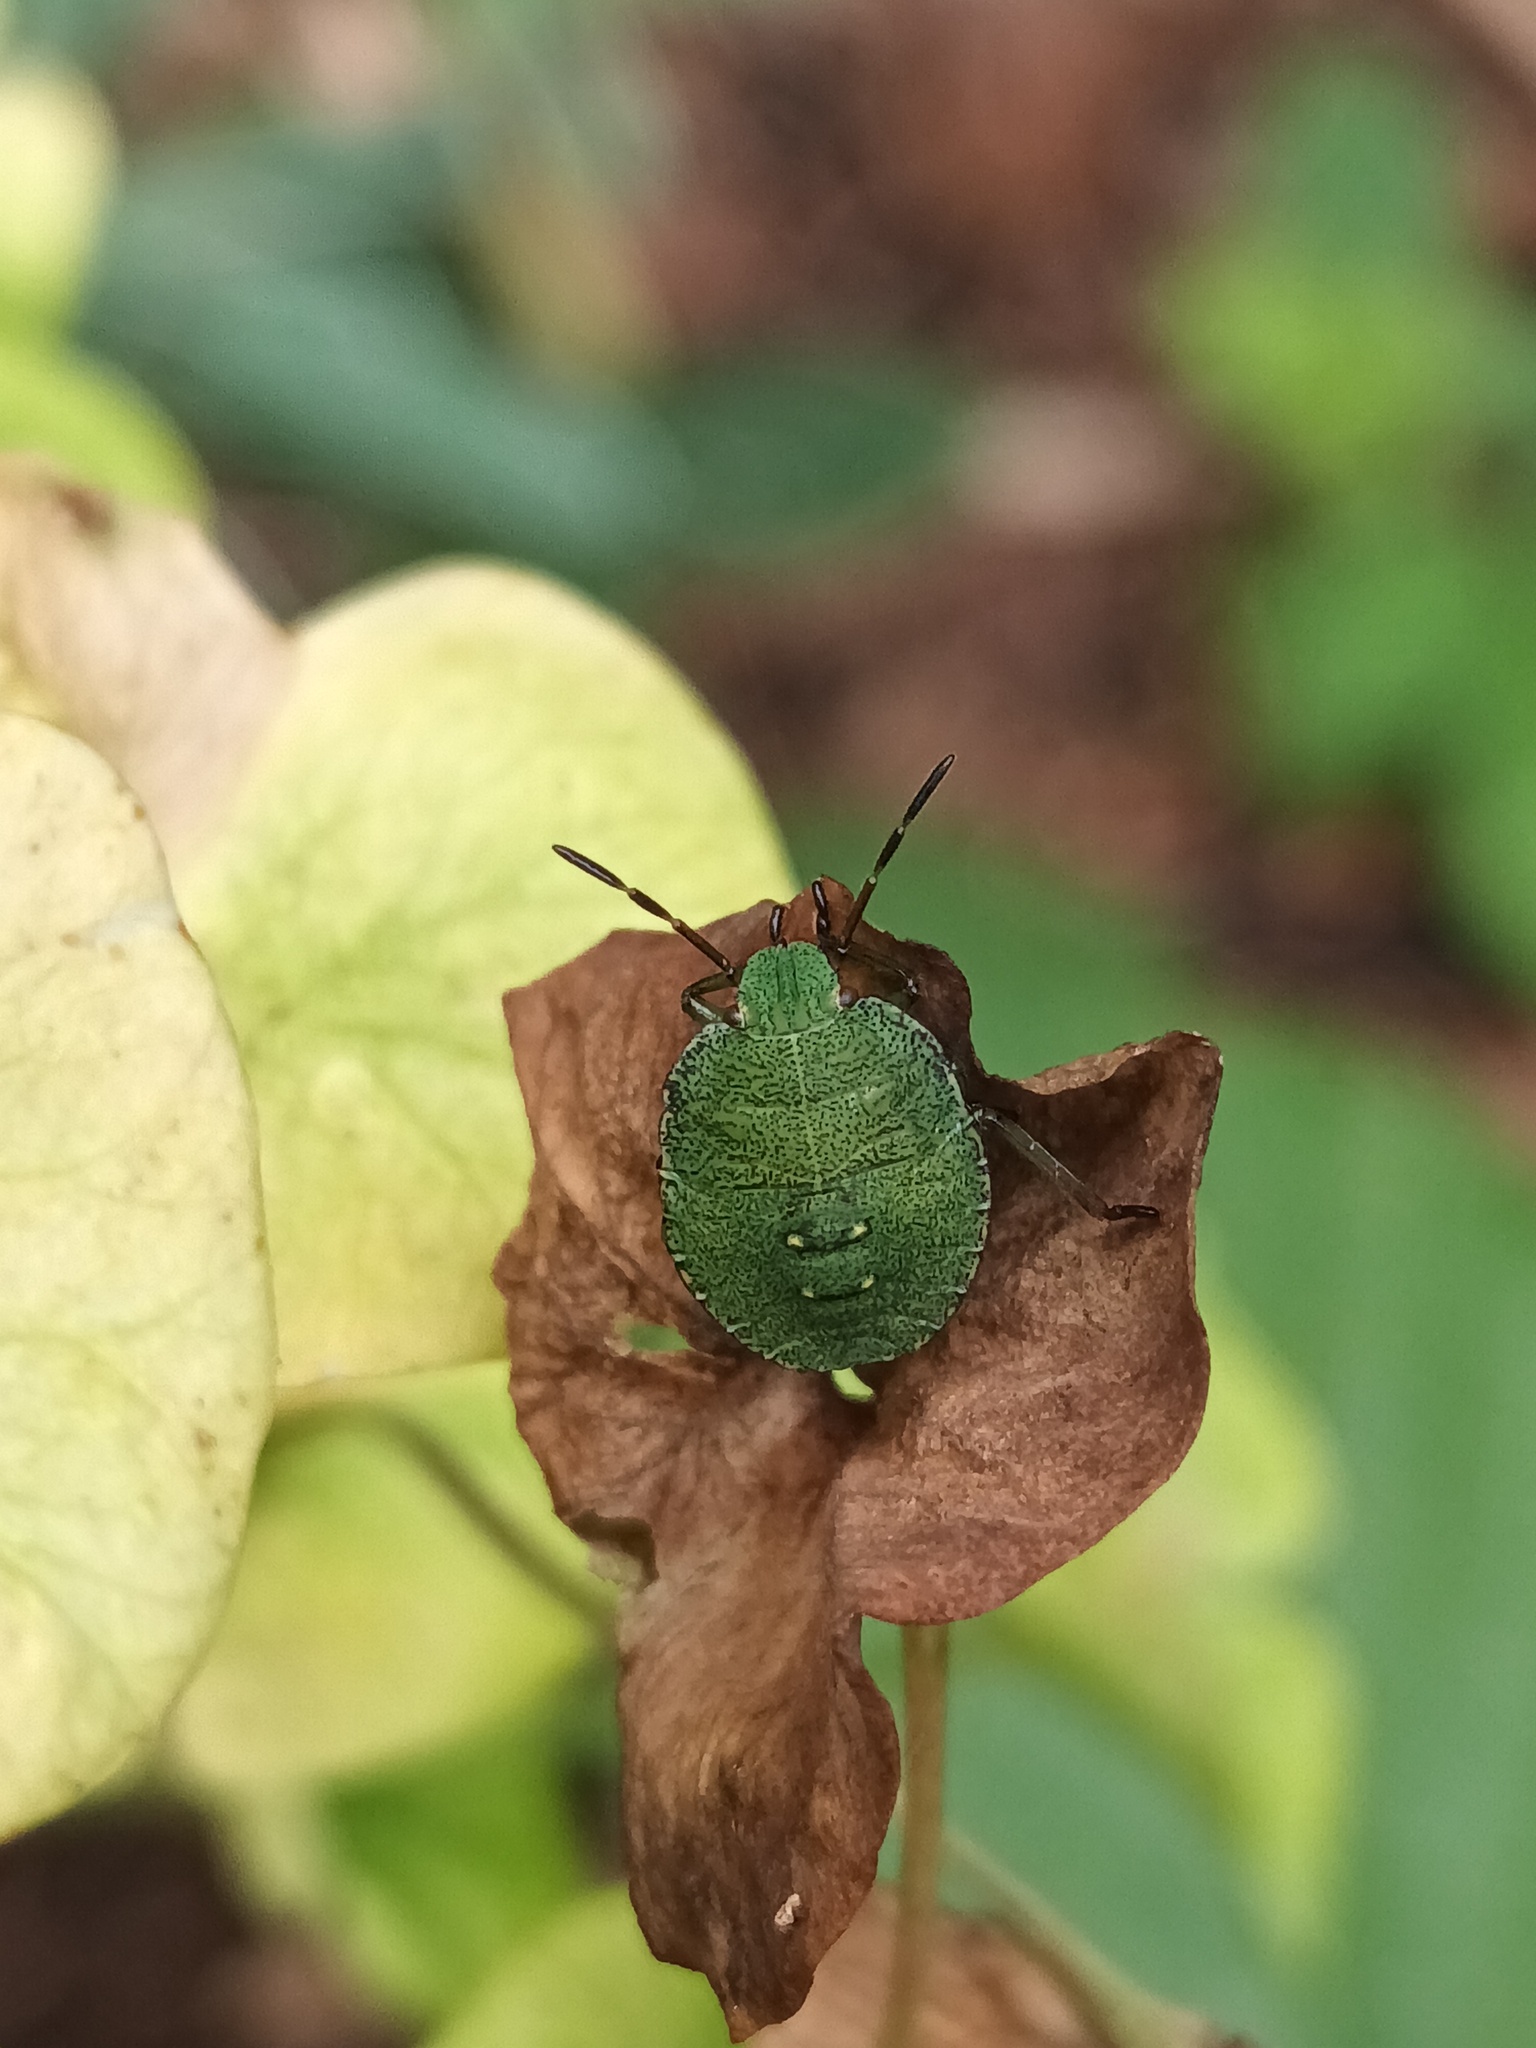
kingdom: Animalia
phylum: Arthropoda
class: Insecta
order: Hemiptera
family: Pentatomidae
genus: Palomena
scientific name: Palomena prasina
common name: Green shieldbug
